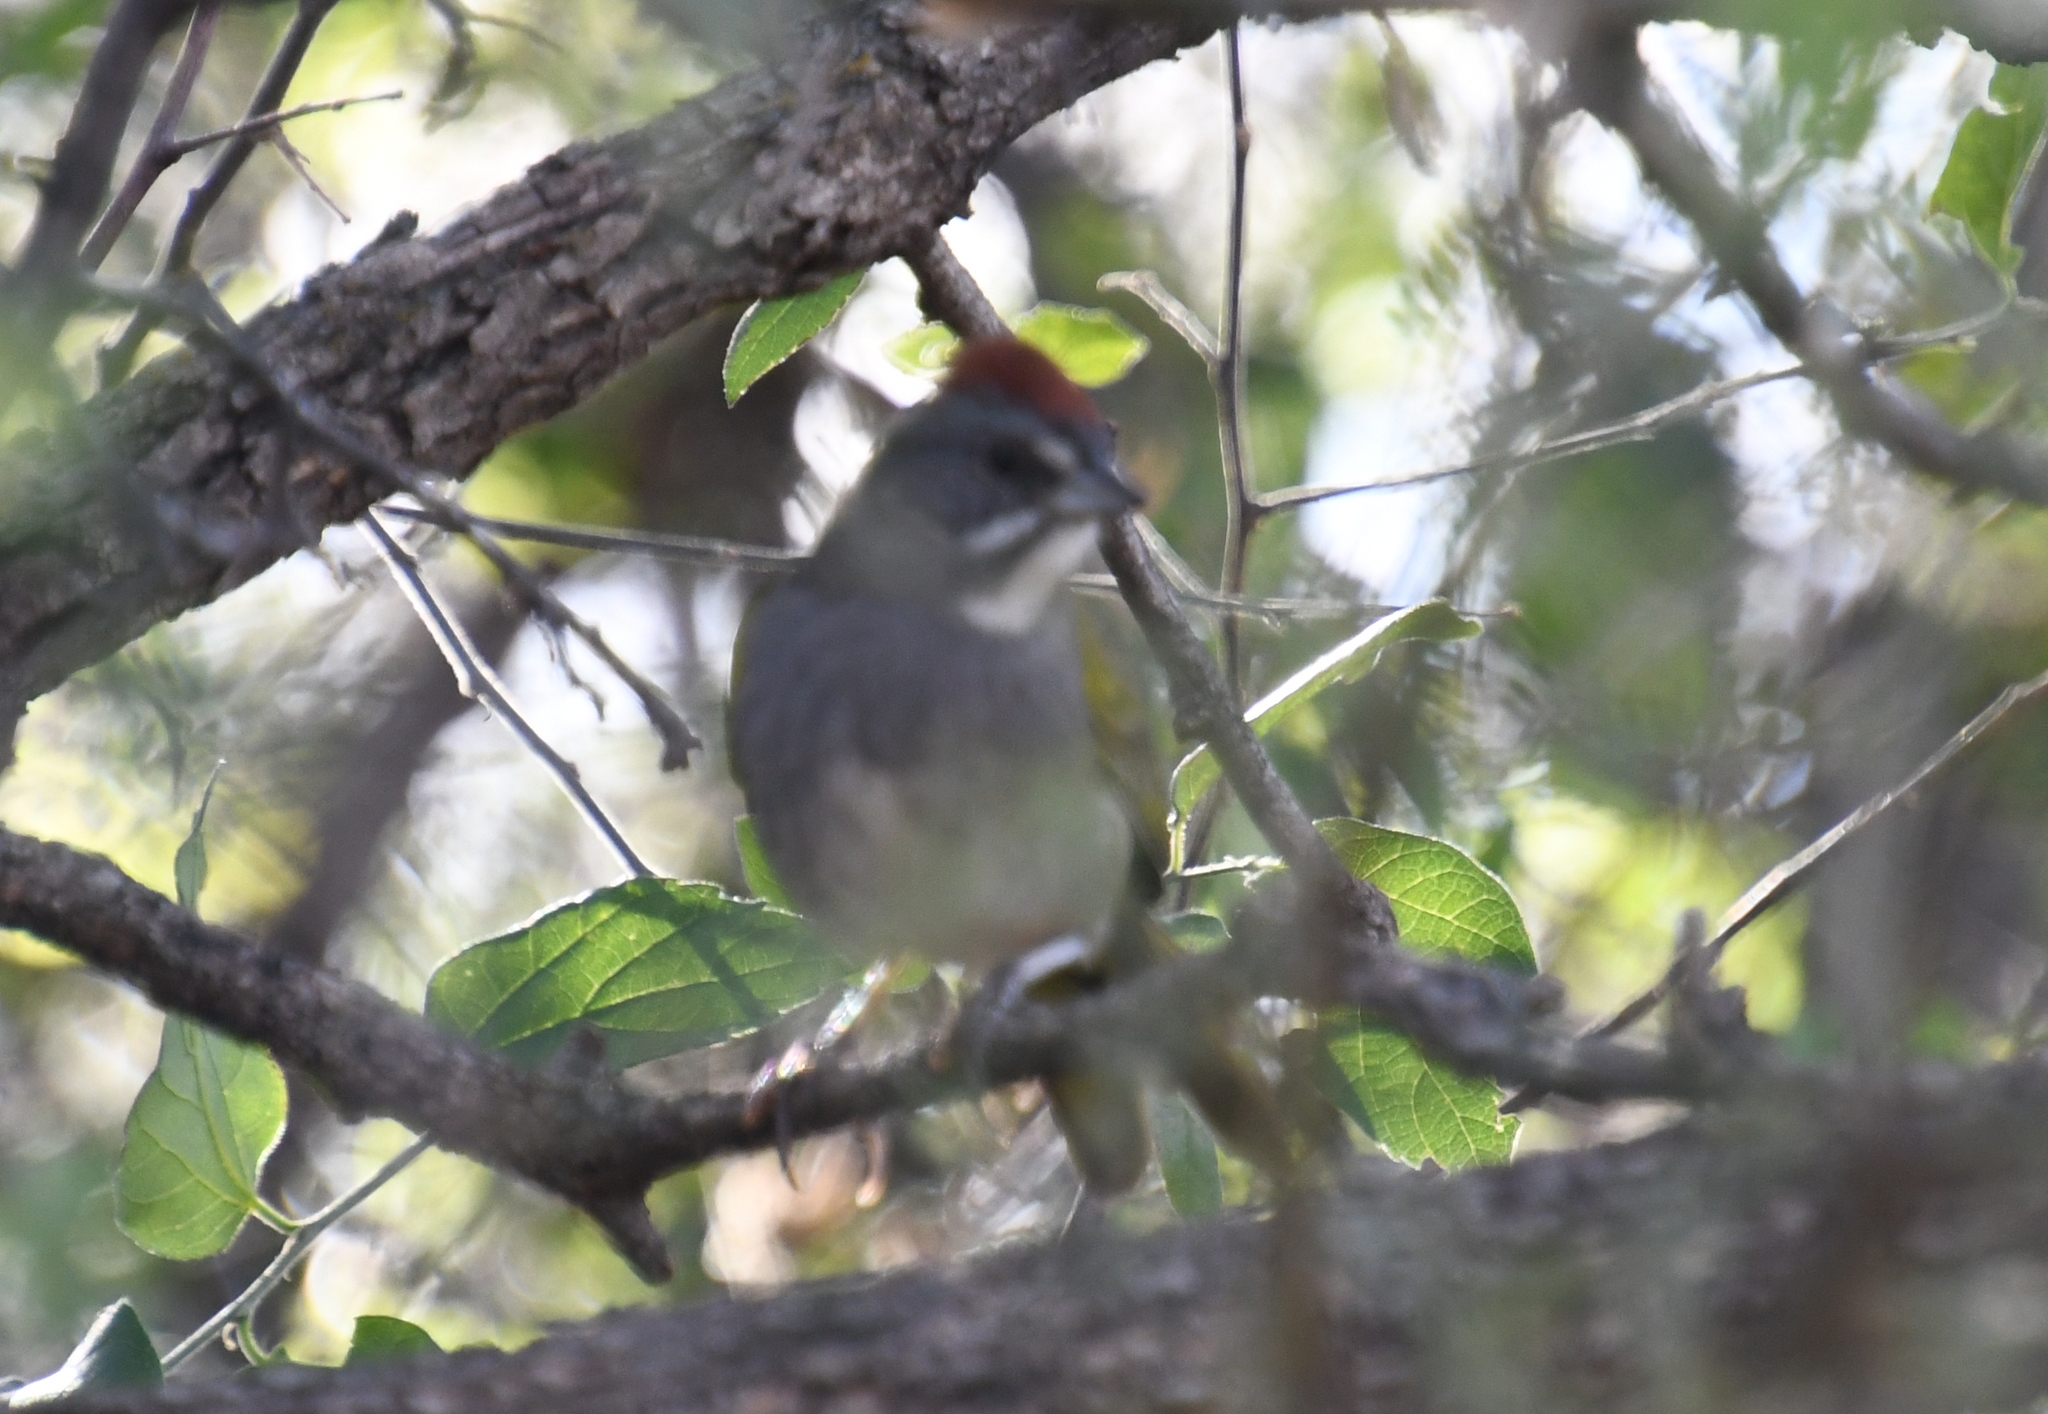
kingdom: Animalia
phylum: Chordata
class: Aves
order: Passeriformes
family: Passerellidae
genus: Pipilo
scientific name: Pipilo chlorurus
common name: Green-tailed towhee
